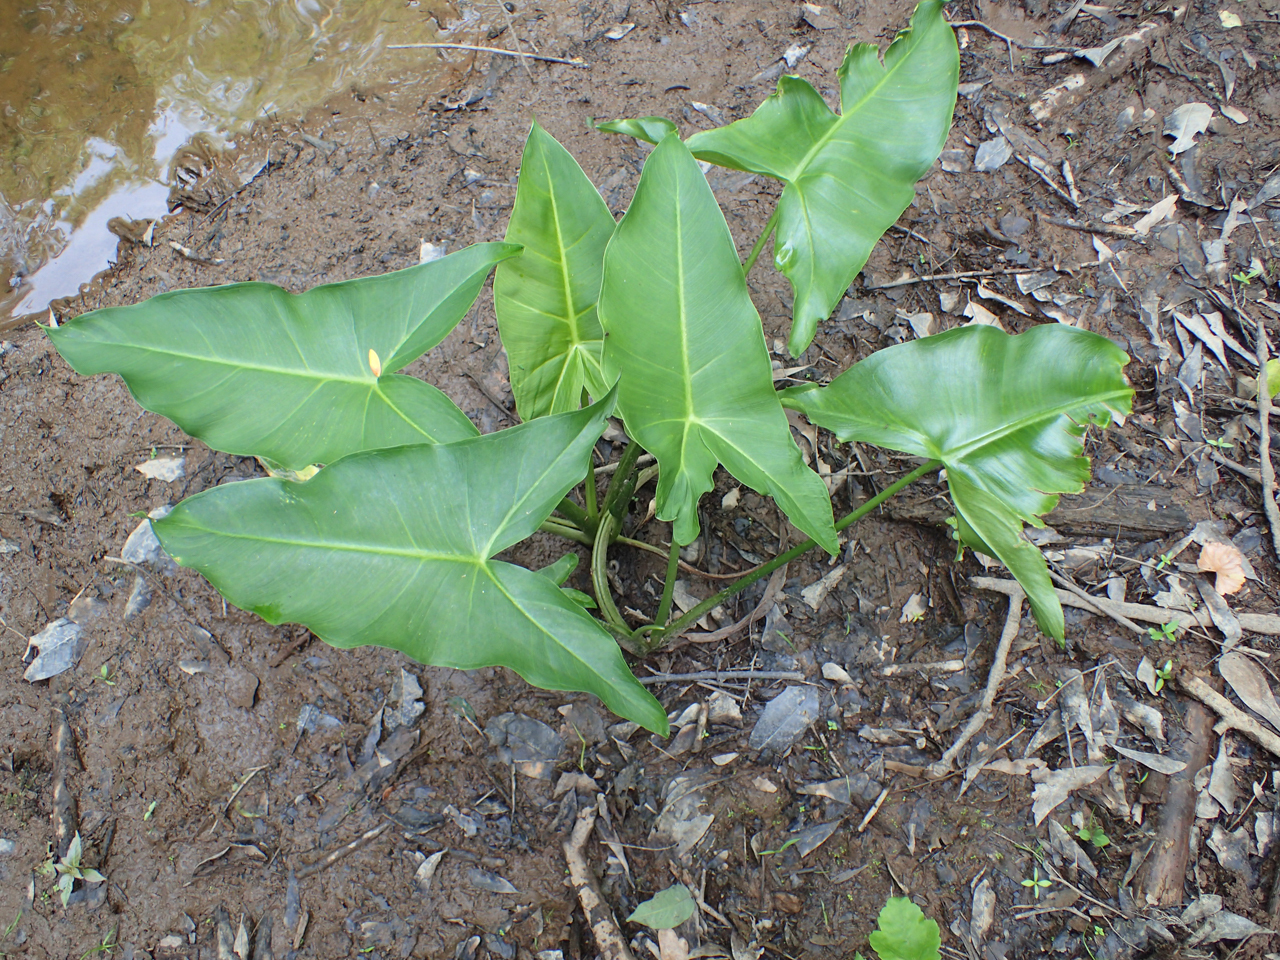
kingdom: Plantae
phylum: Tracheophyta
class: Liliopsida
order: Alismatales
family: Araceae
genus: Peltandra
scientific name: Peltandra virginica
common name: Arrow arum
